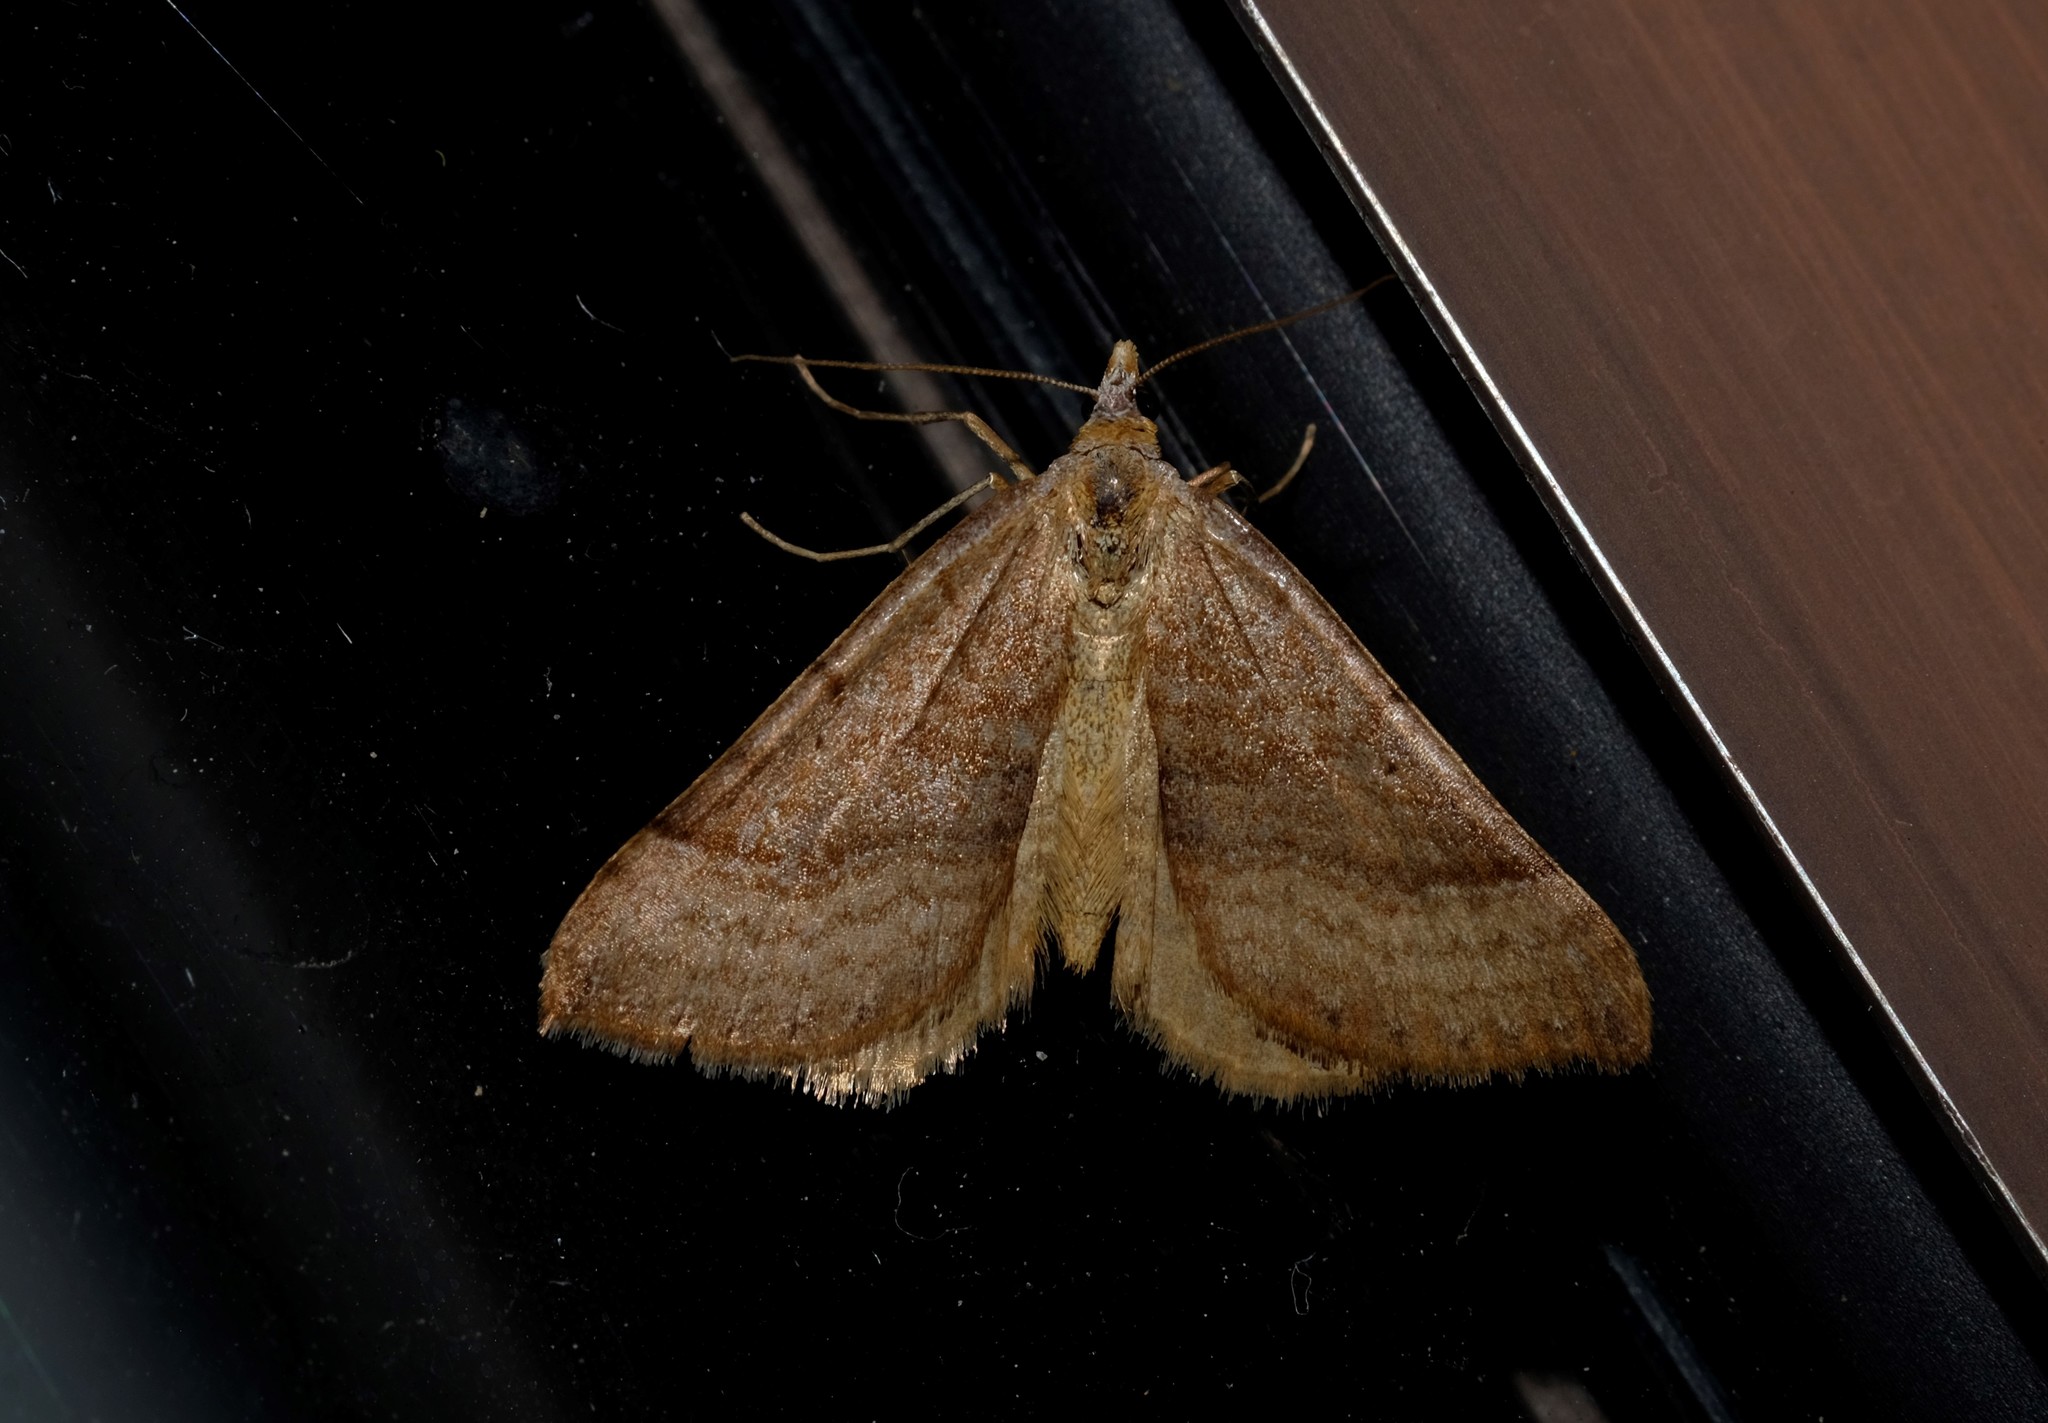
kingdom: Animalia
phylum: Arthropoda
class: Insecta
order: Lepidoptera
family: Geometridae
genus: Anachloris
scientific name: Anachloris subochraria
